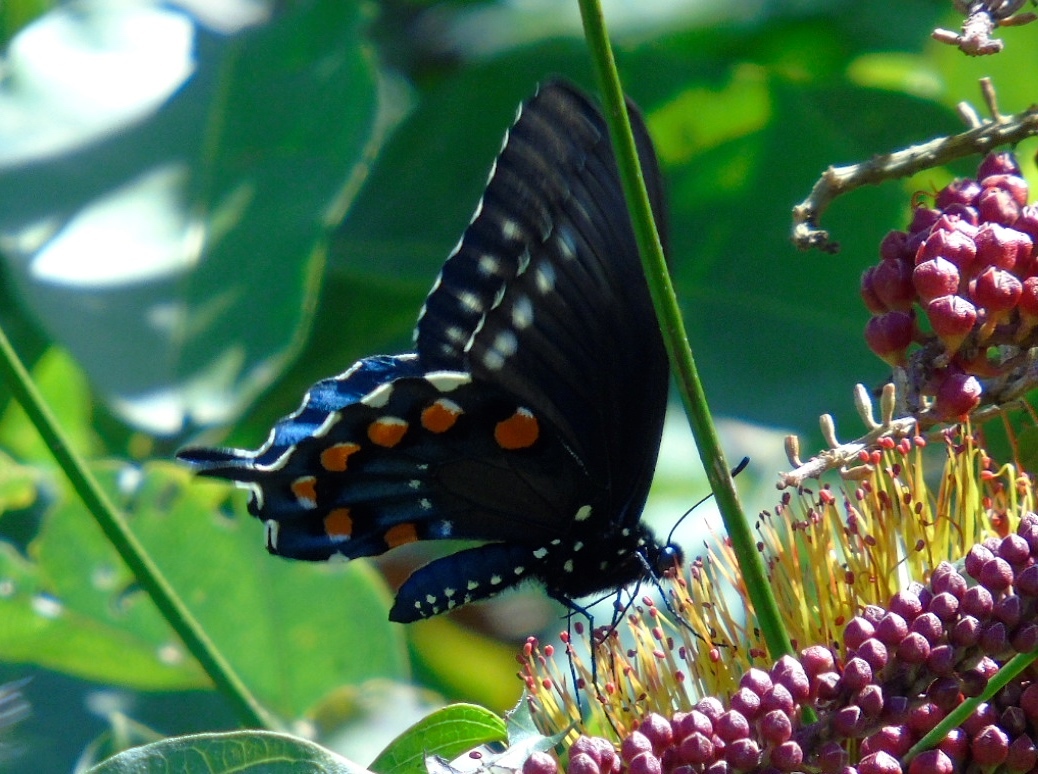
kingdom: Animalia
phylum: Arthropoda
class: Insecta
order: Lepidoptera
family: Papilionidae
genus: Battus
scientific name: Battus philenor
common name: Pipevine swallowtail
